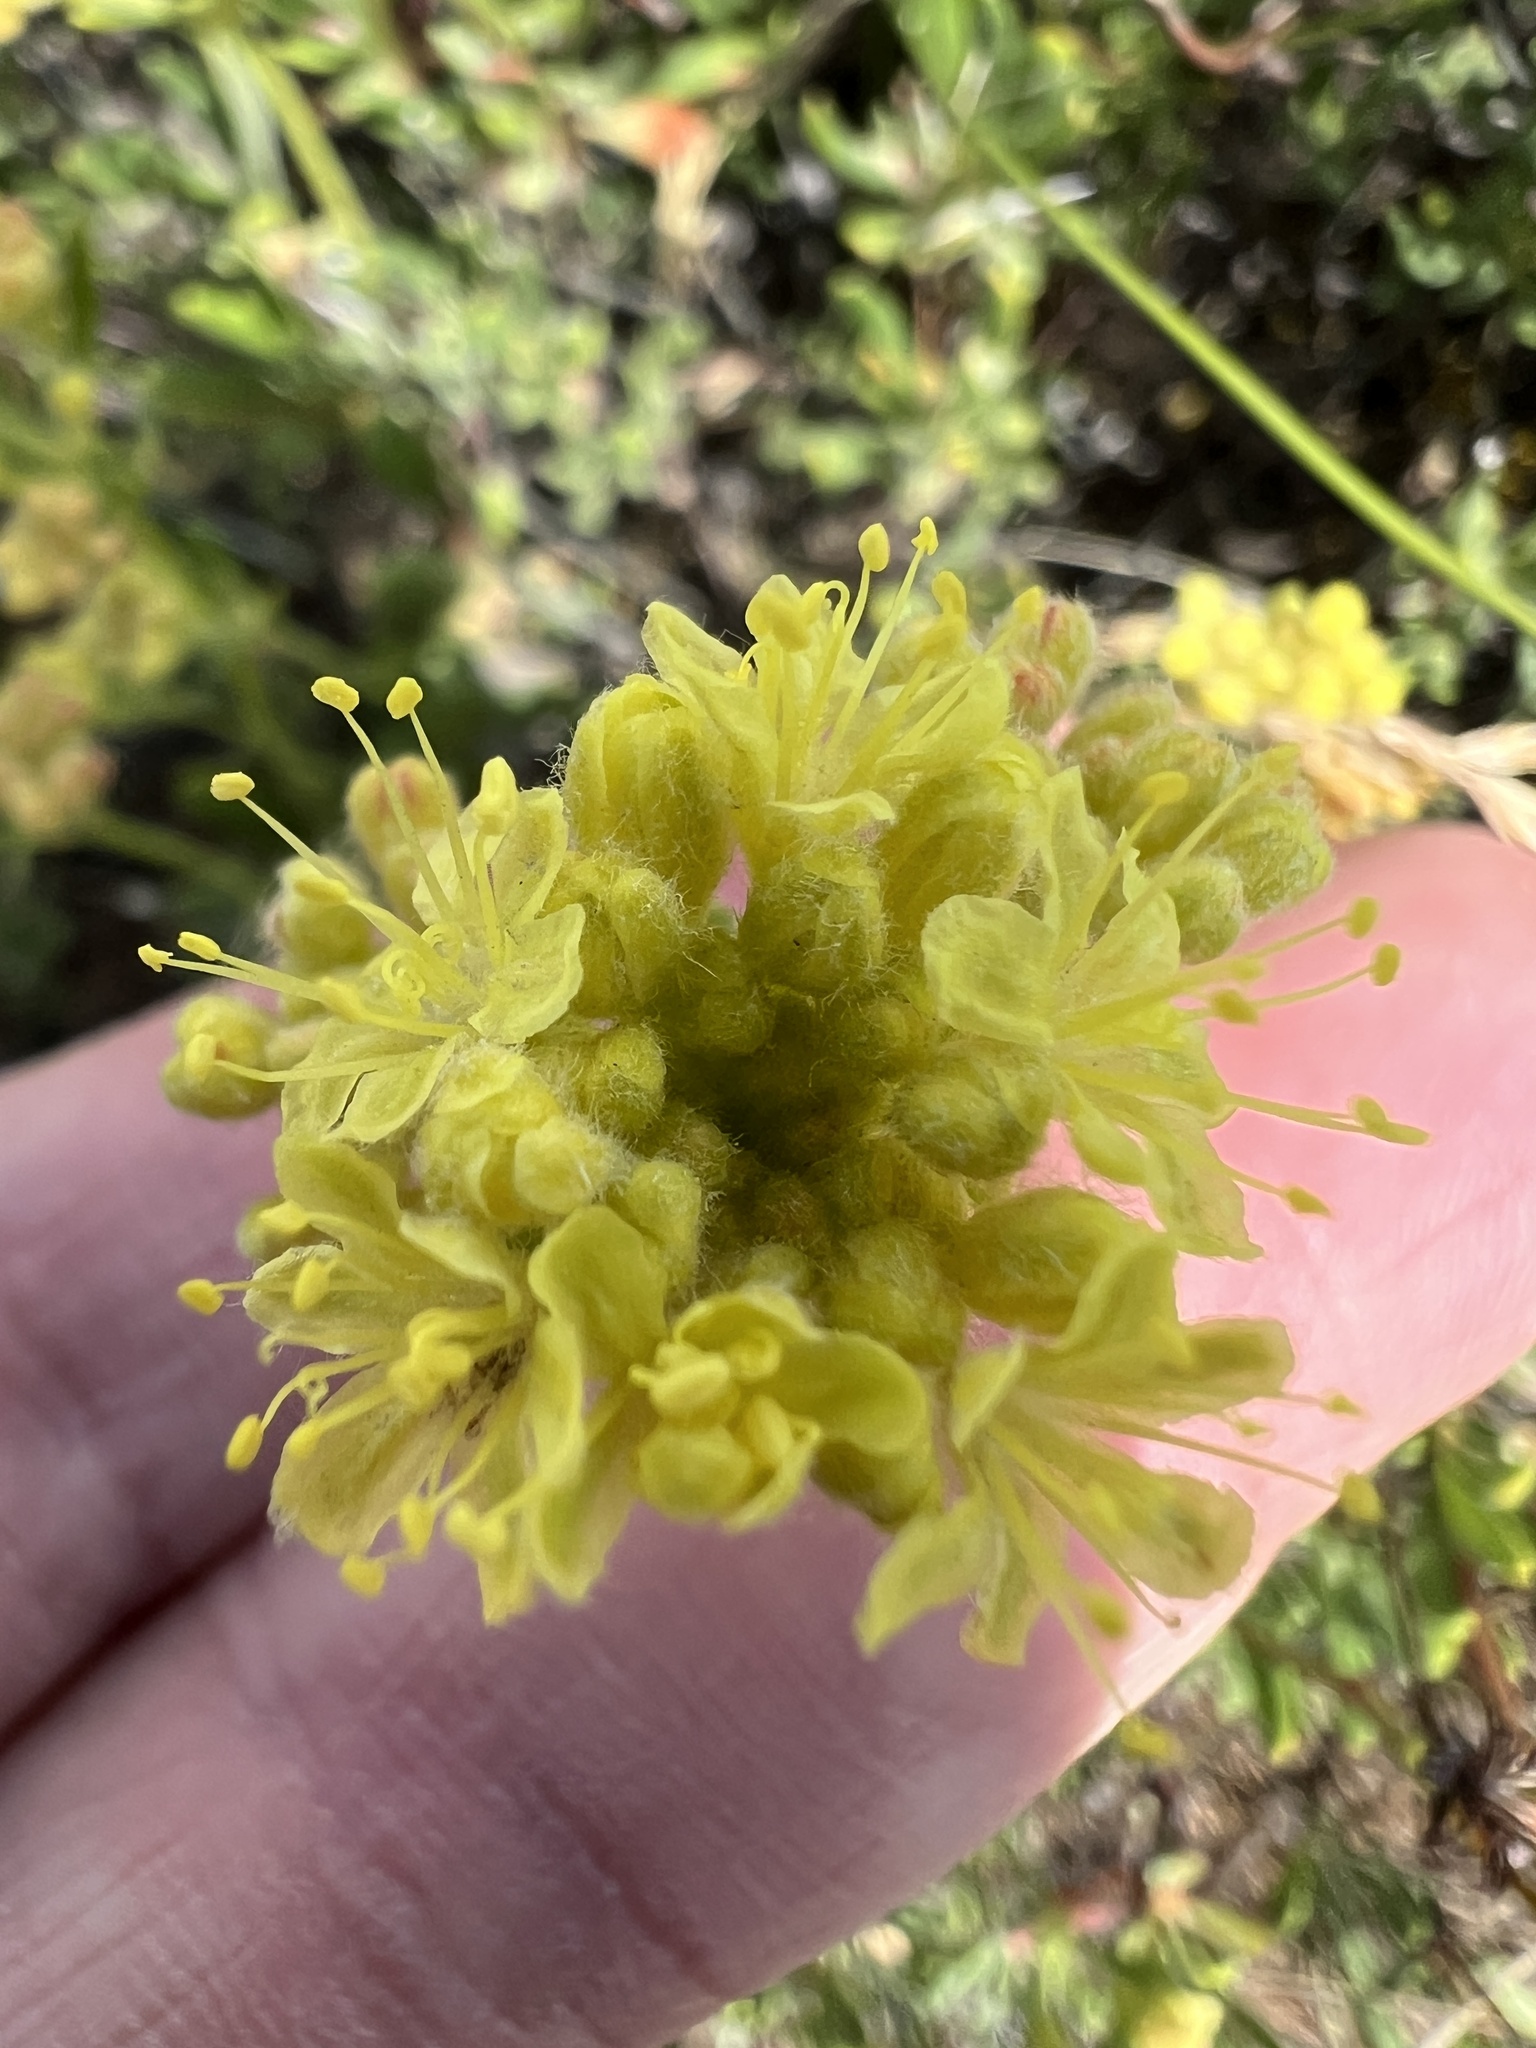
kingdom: Plantae
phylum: Tracheophyta
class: Magnoliopsida
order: Caryophyllales
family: Polygonaceae
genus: Eriogonum
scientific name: Eriogonum sphaerocephalum
